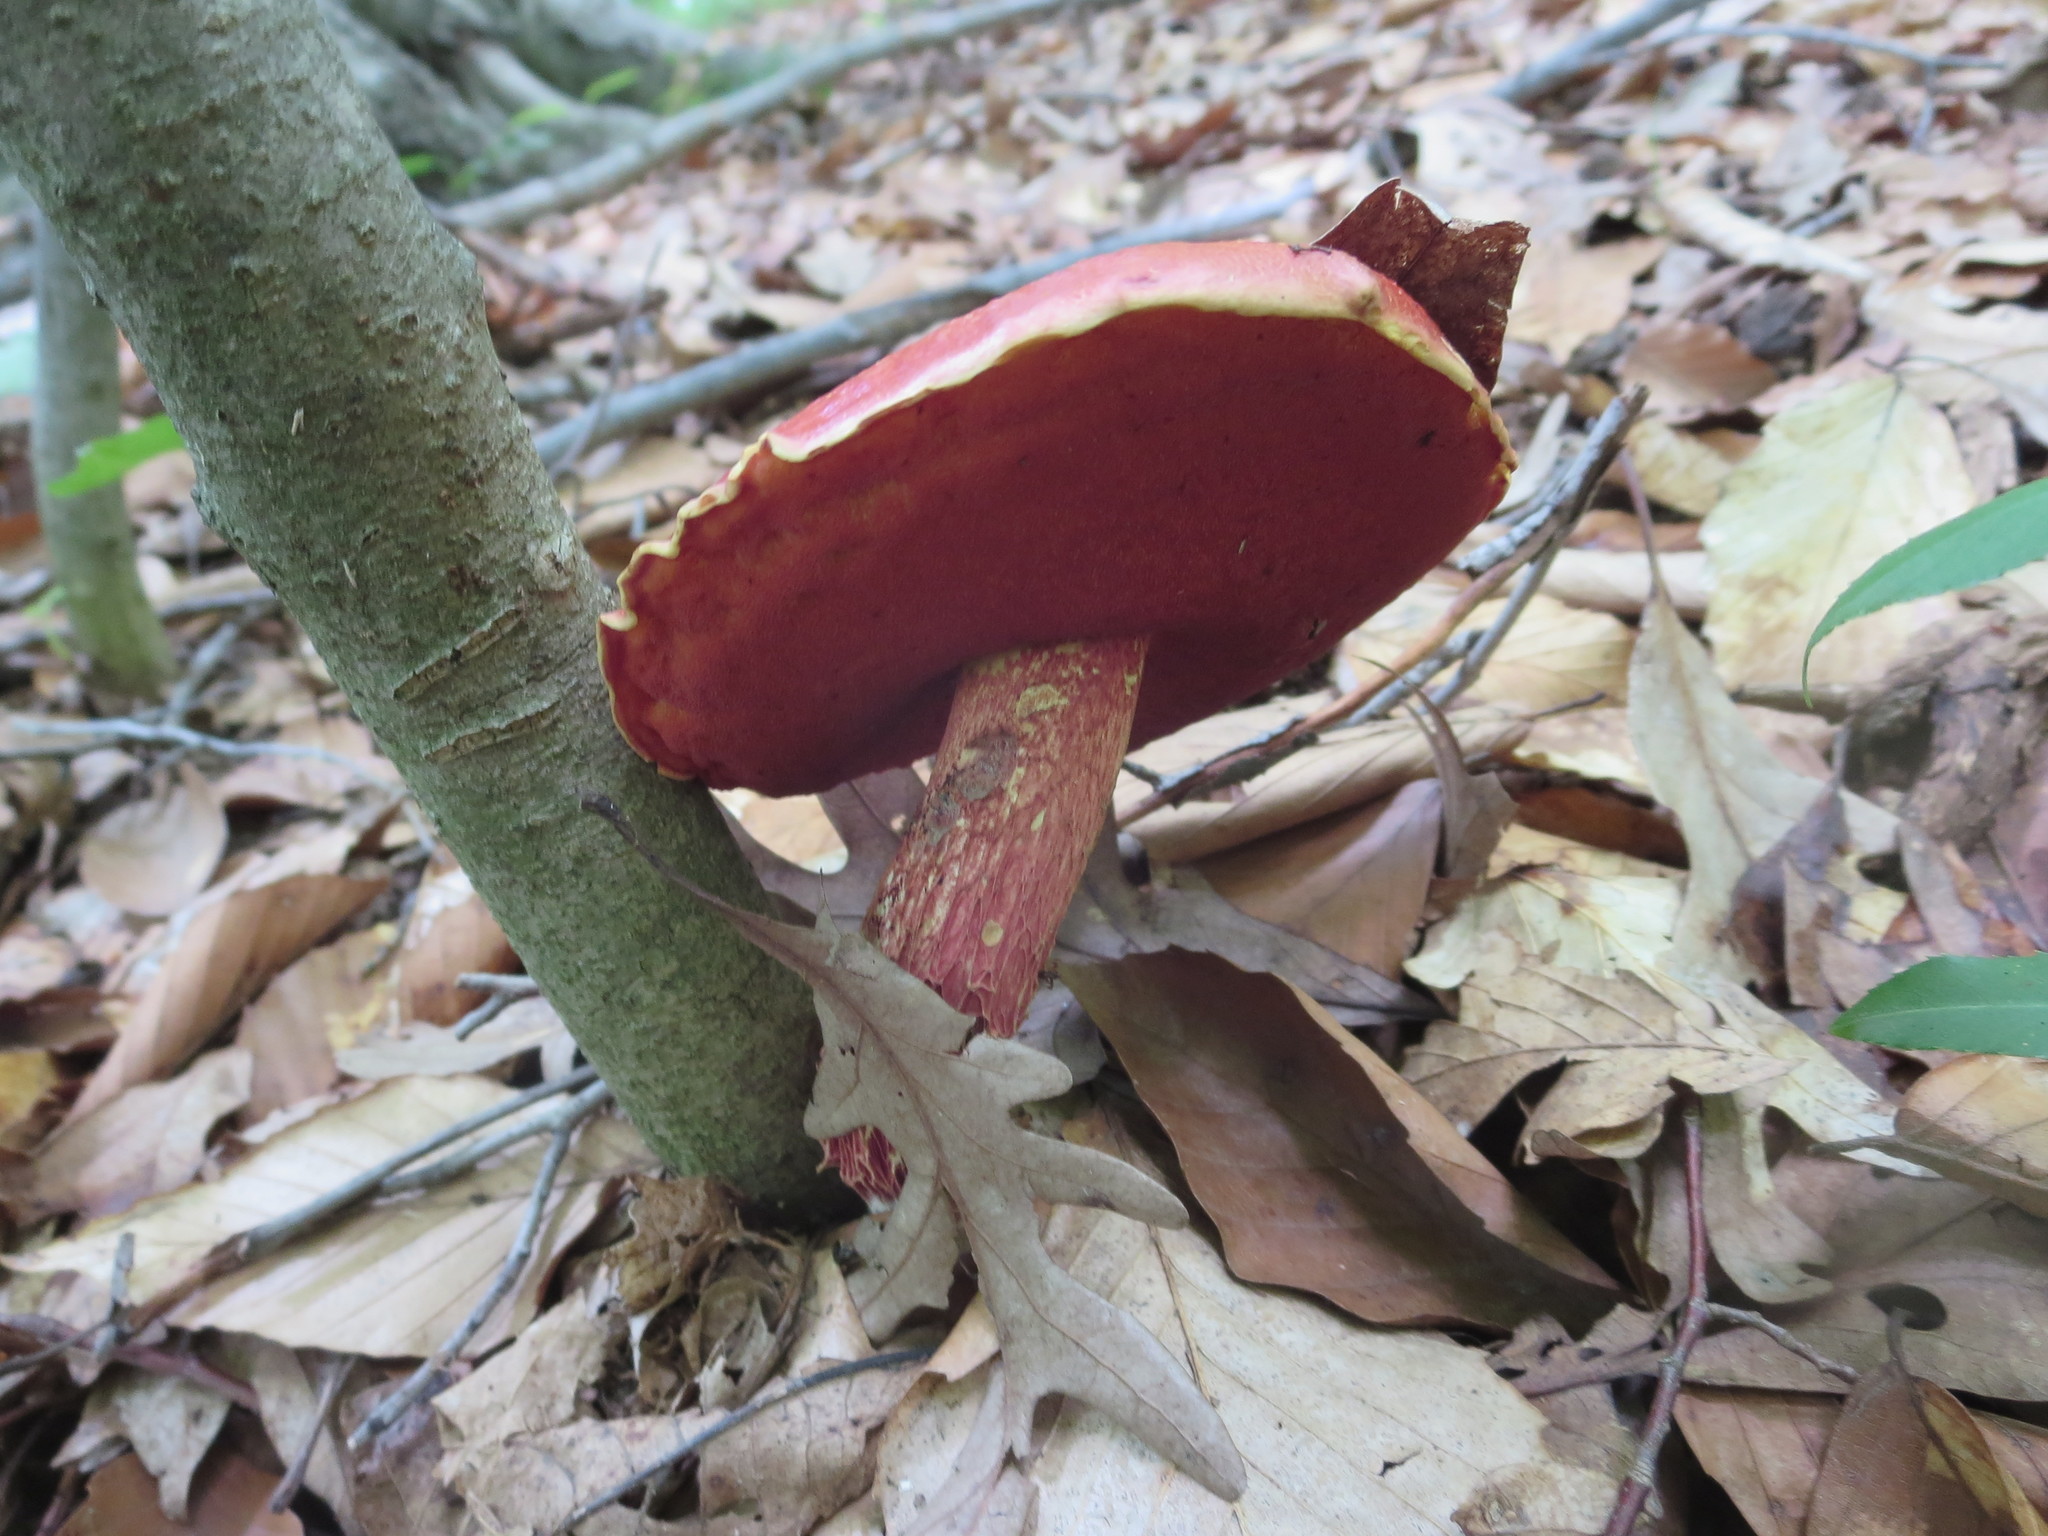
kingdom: Fungi
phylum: Basidiomycota
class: Agaricomycetes
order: Boletales
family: Boletaceae
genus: Butyriboletus
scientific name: Butyriboletus frostii
